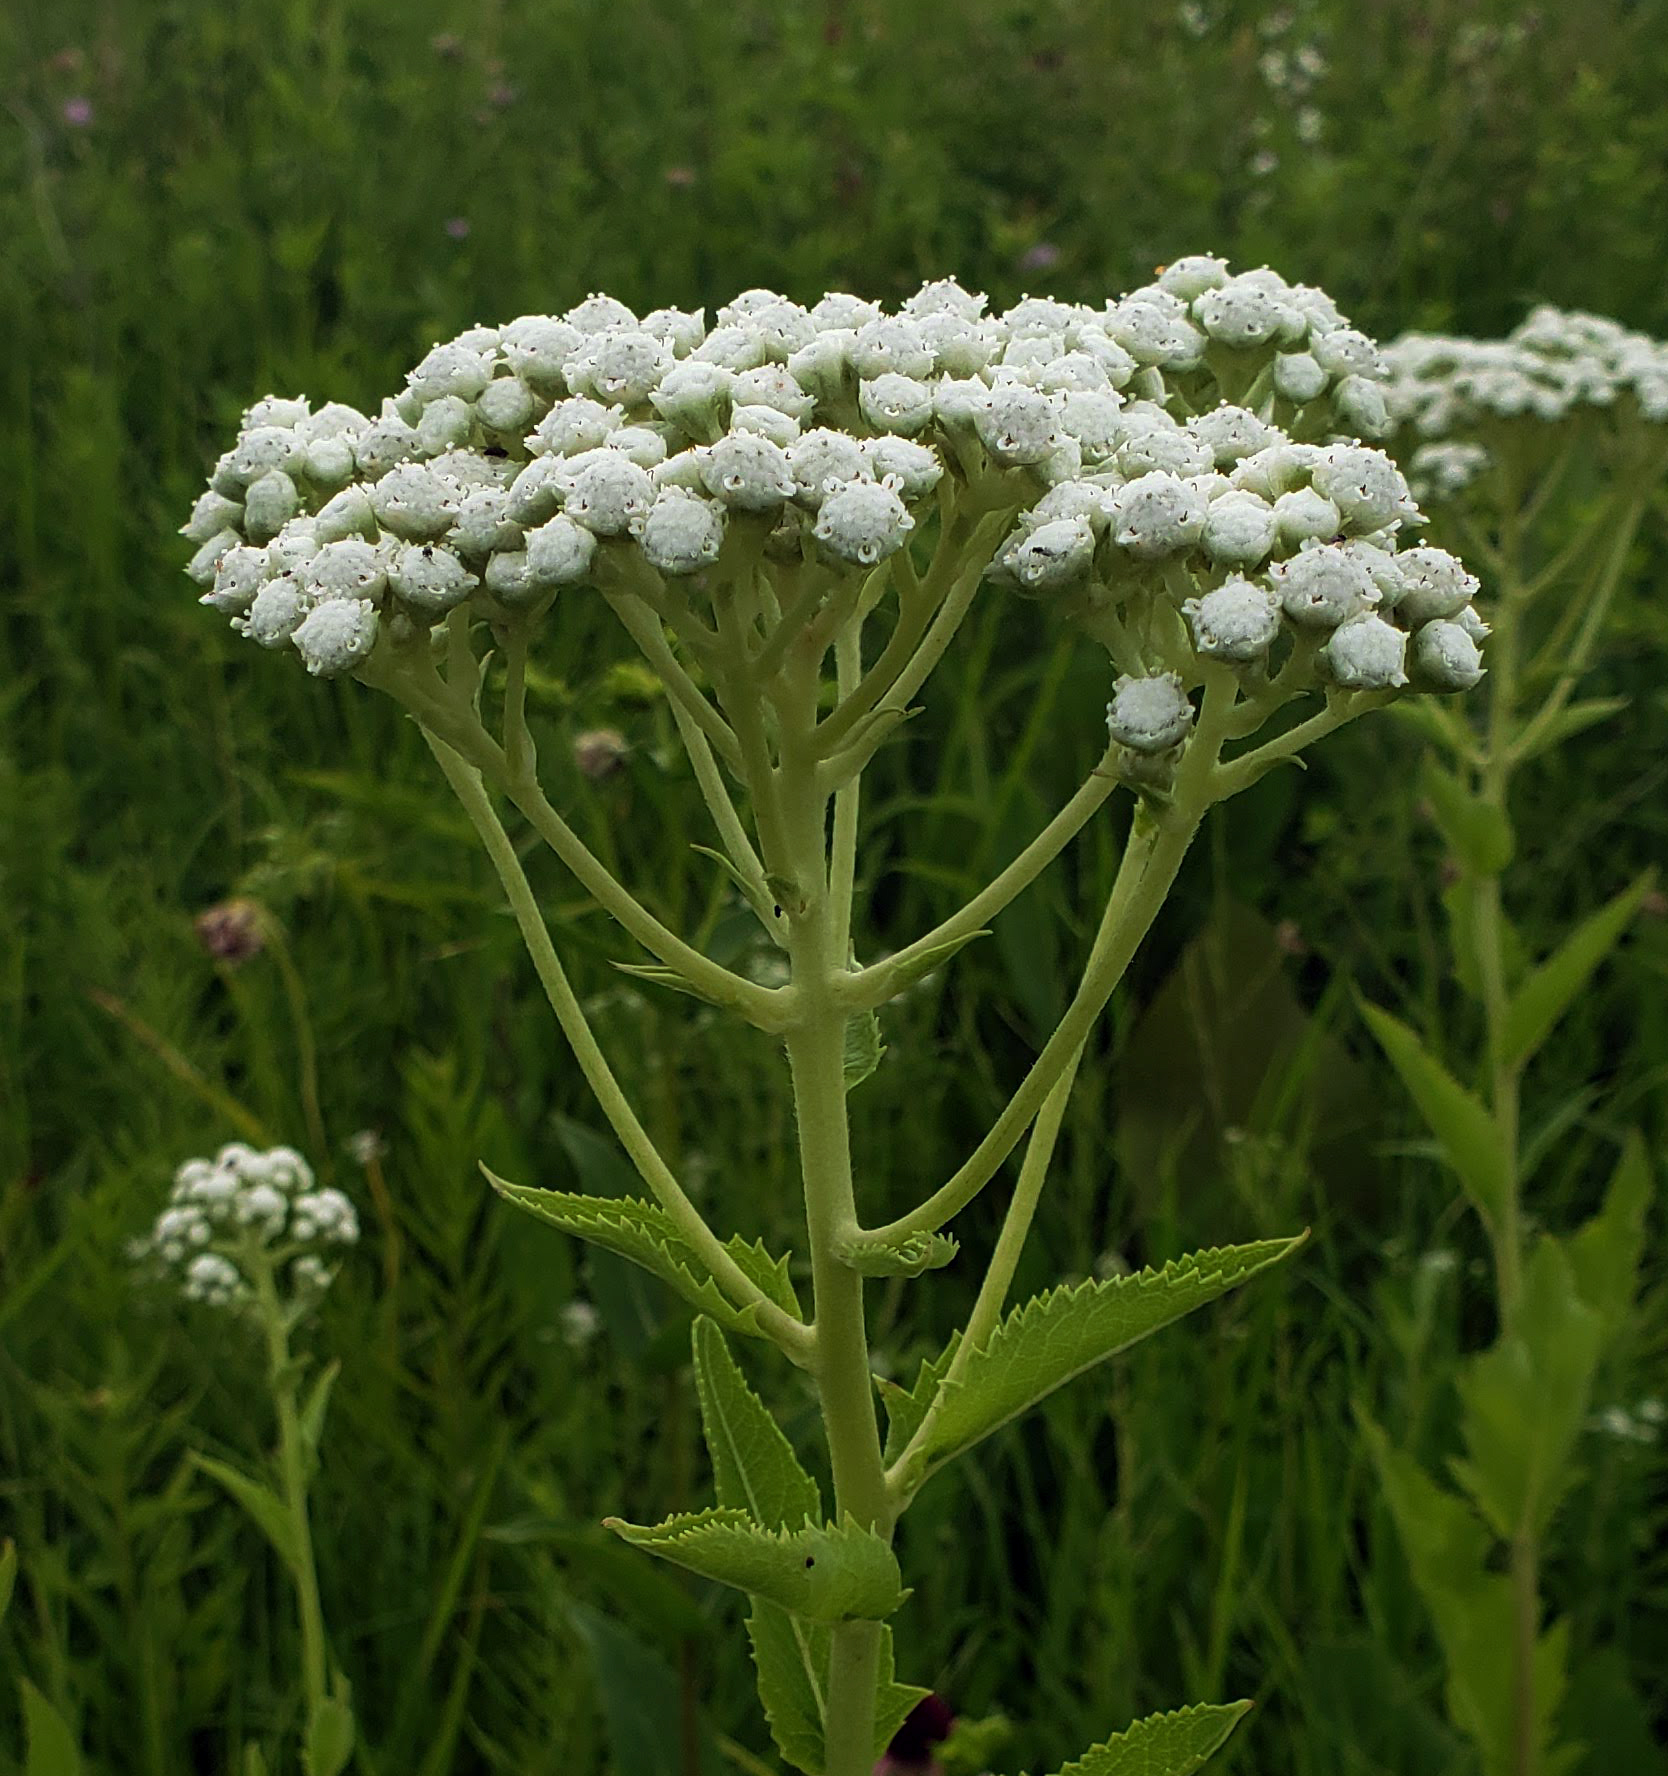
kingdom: Plantae
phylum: Tracheophyta
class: Magnoliopsida
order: Asterales
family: Asteraceae
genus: Parthenium
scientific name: Parthenium integrifolium
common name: American feverfew
